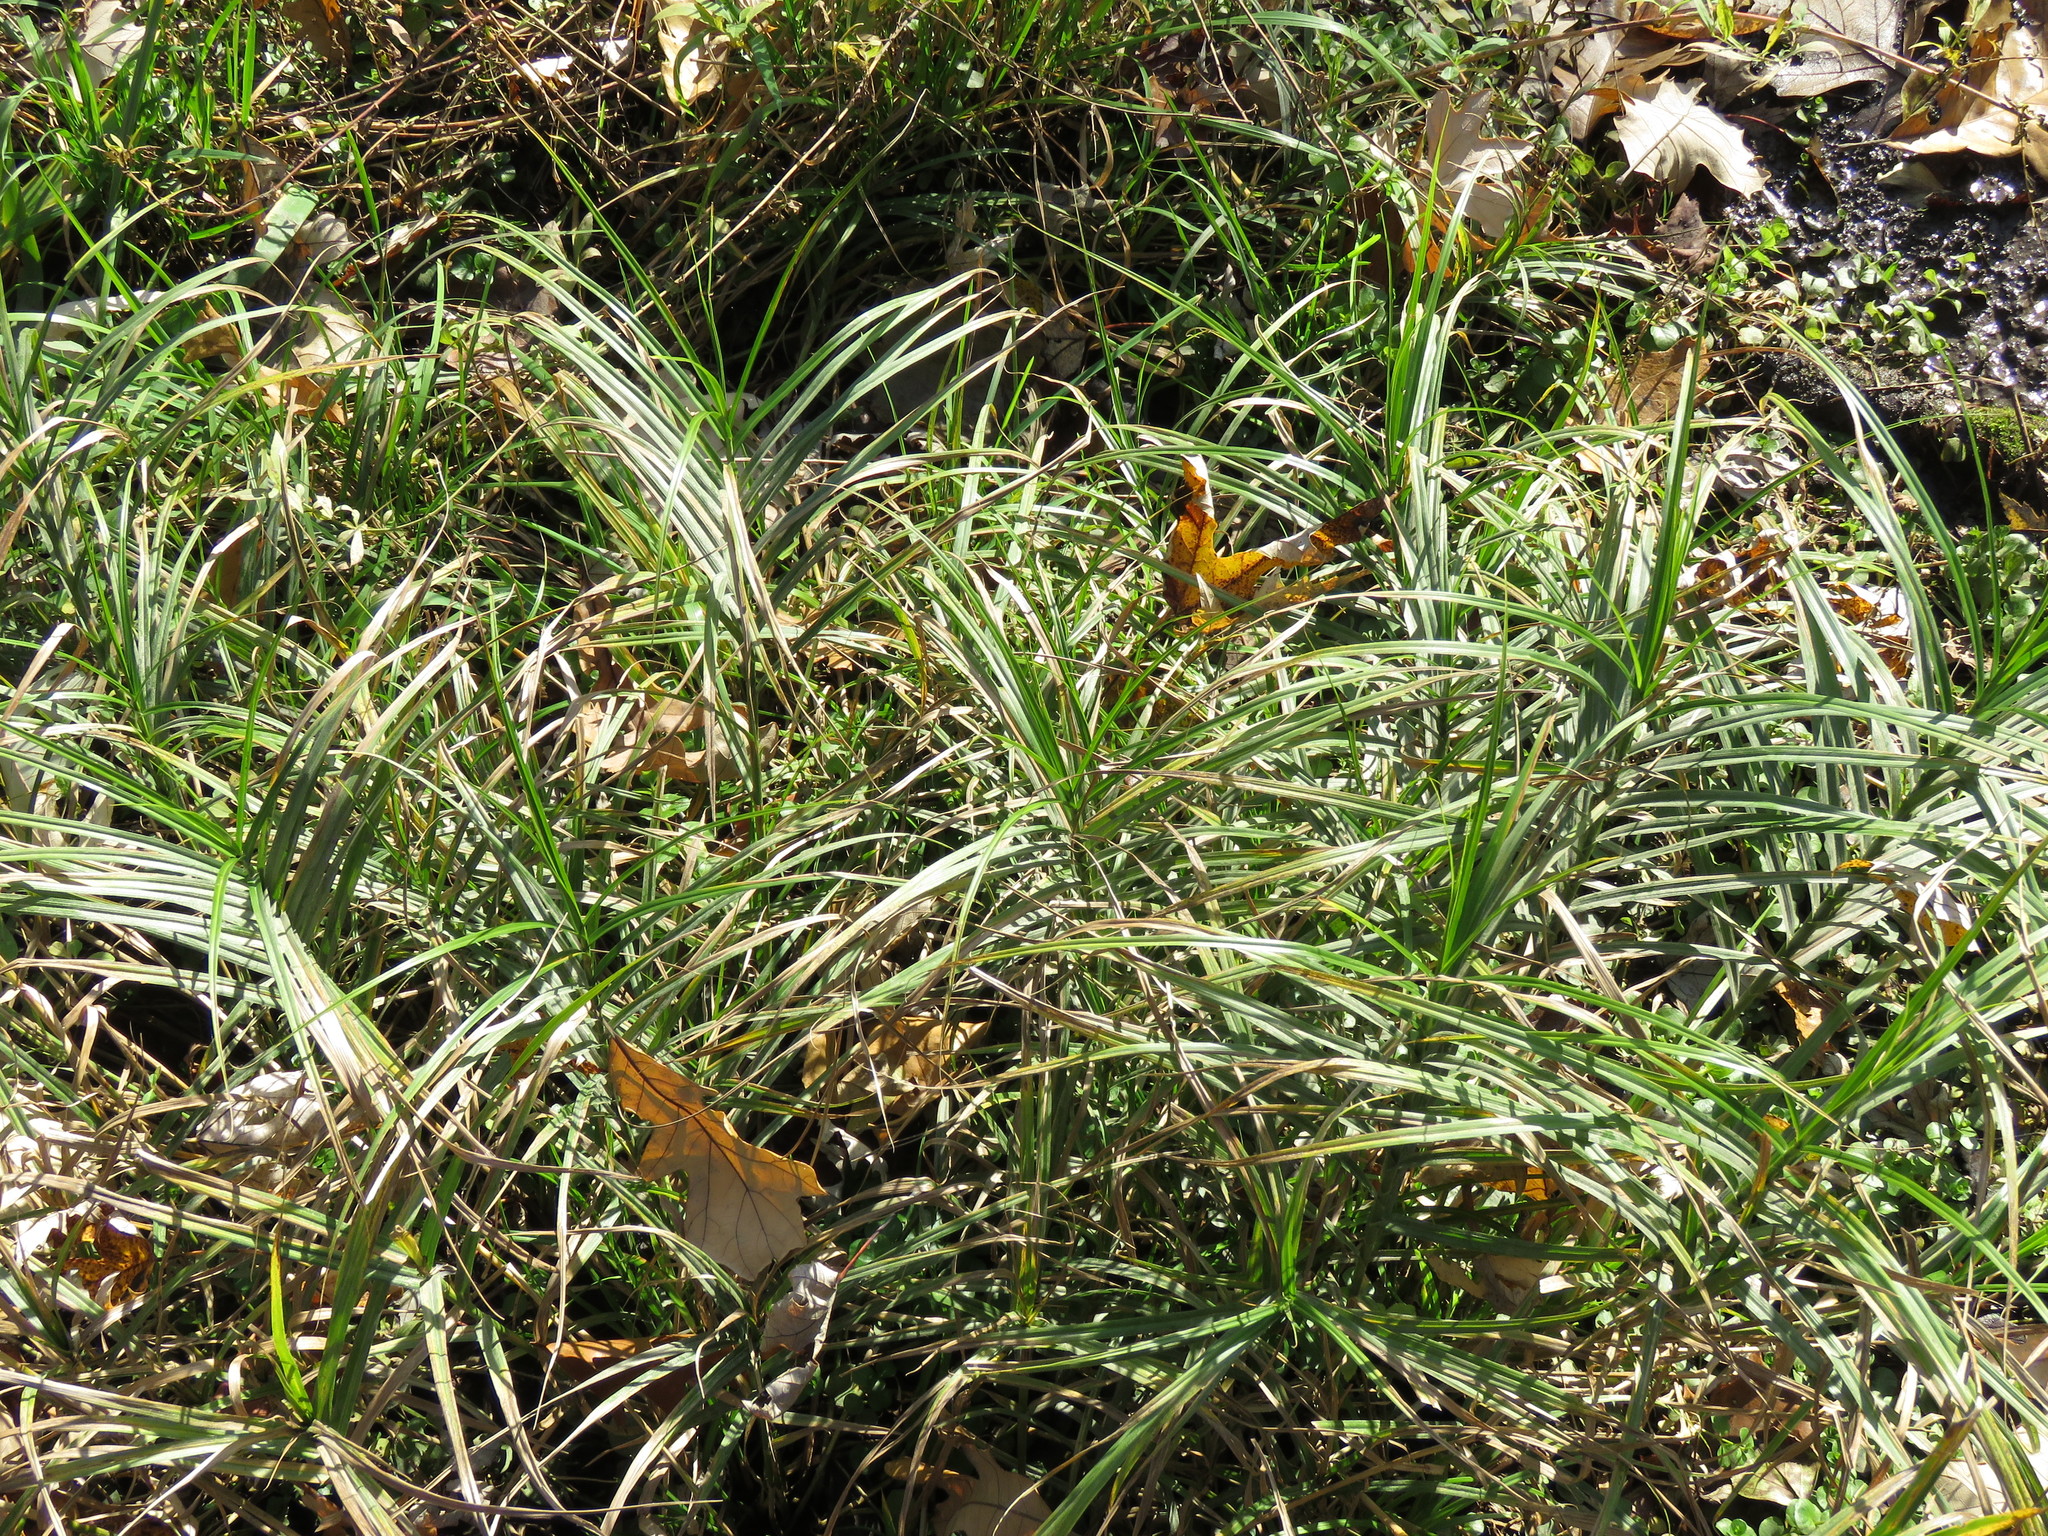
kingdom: Plantae
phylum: Tracheophyta
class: Liliopsida
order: Poales
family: Cyperaceae
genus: Carex
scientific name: Carex muskingumensis
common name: Muskingum sedge
